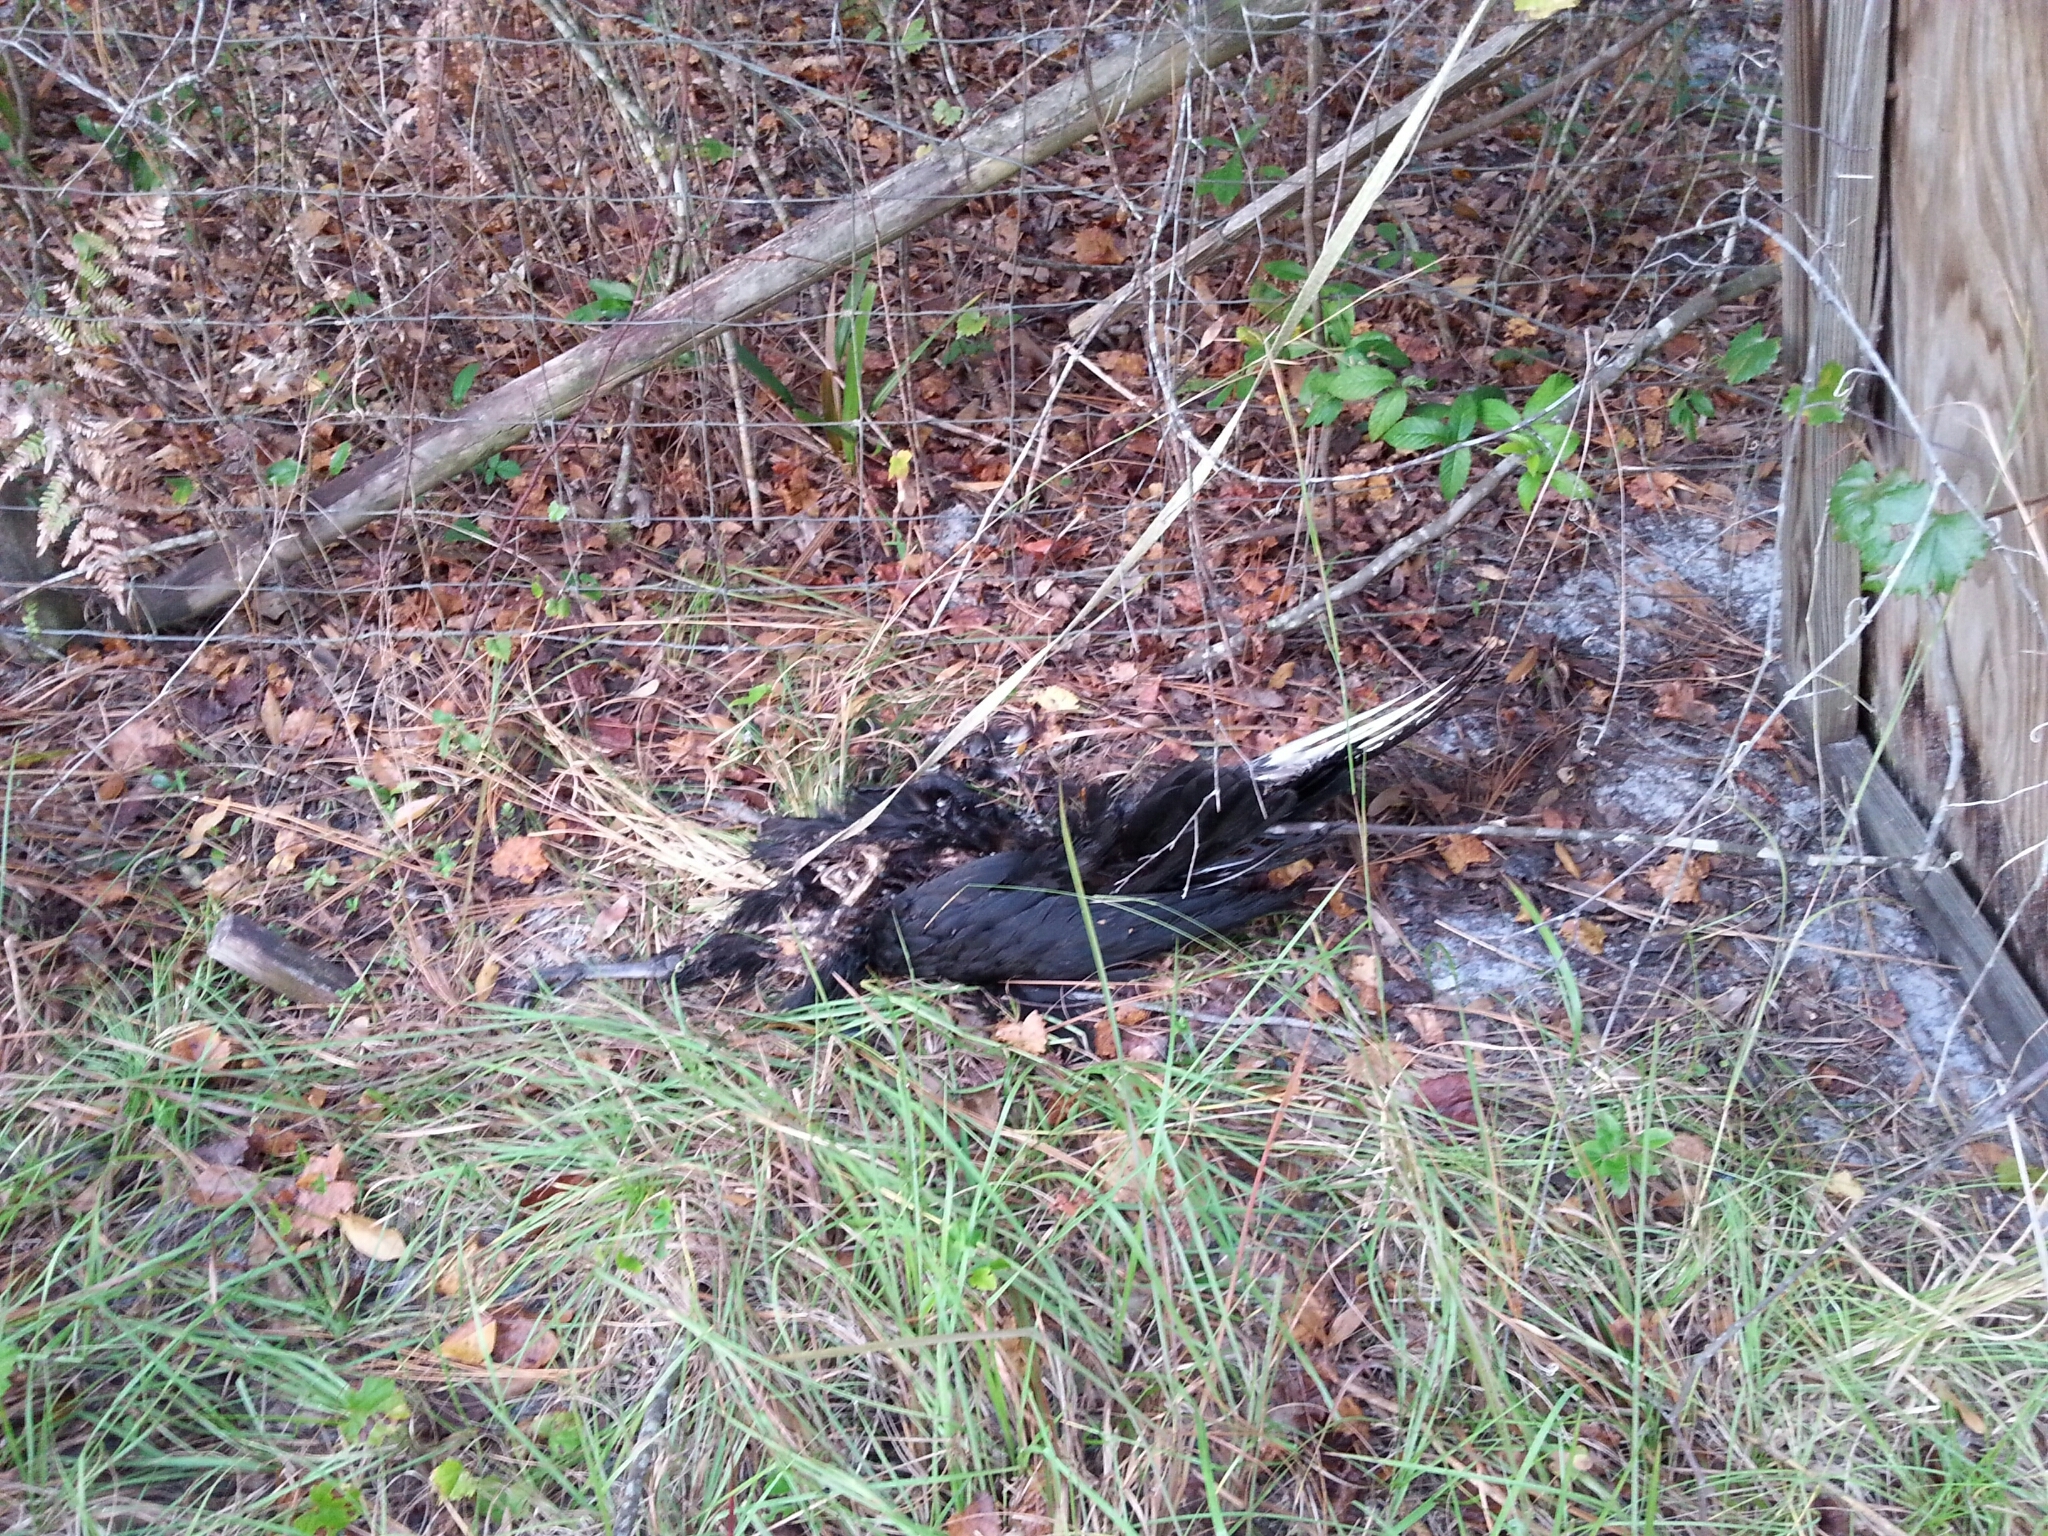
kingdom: Animalia
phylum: Chordata
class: Aves
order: Accipitriformes
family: Cathartidae
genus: Coragyps
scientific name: Coragyps atratus
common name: Black vulture
